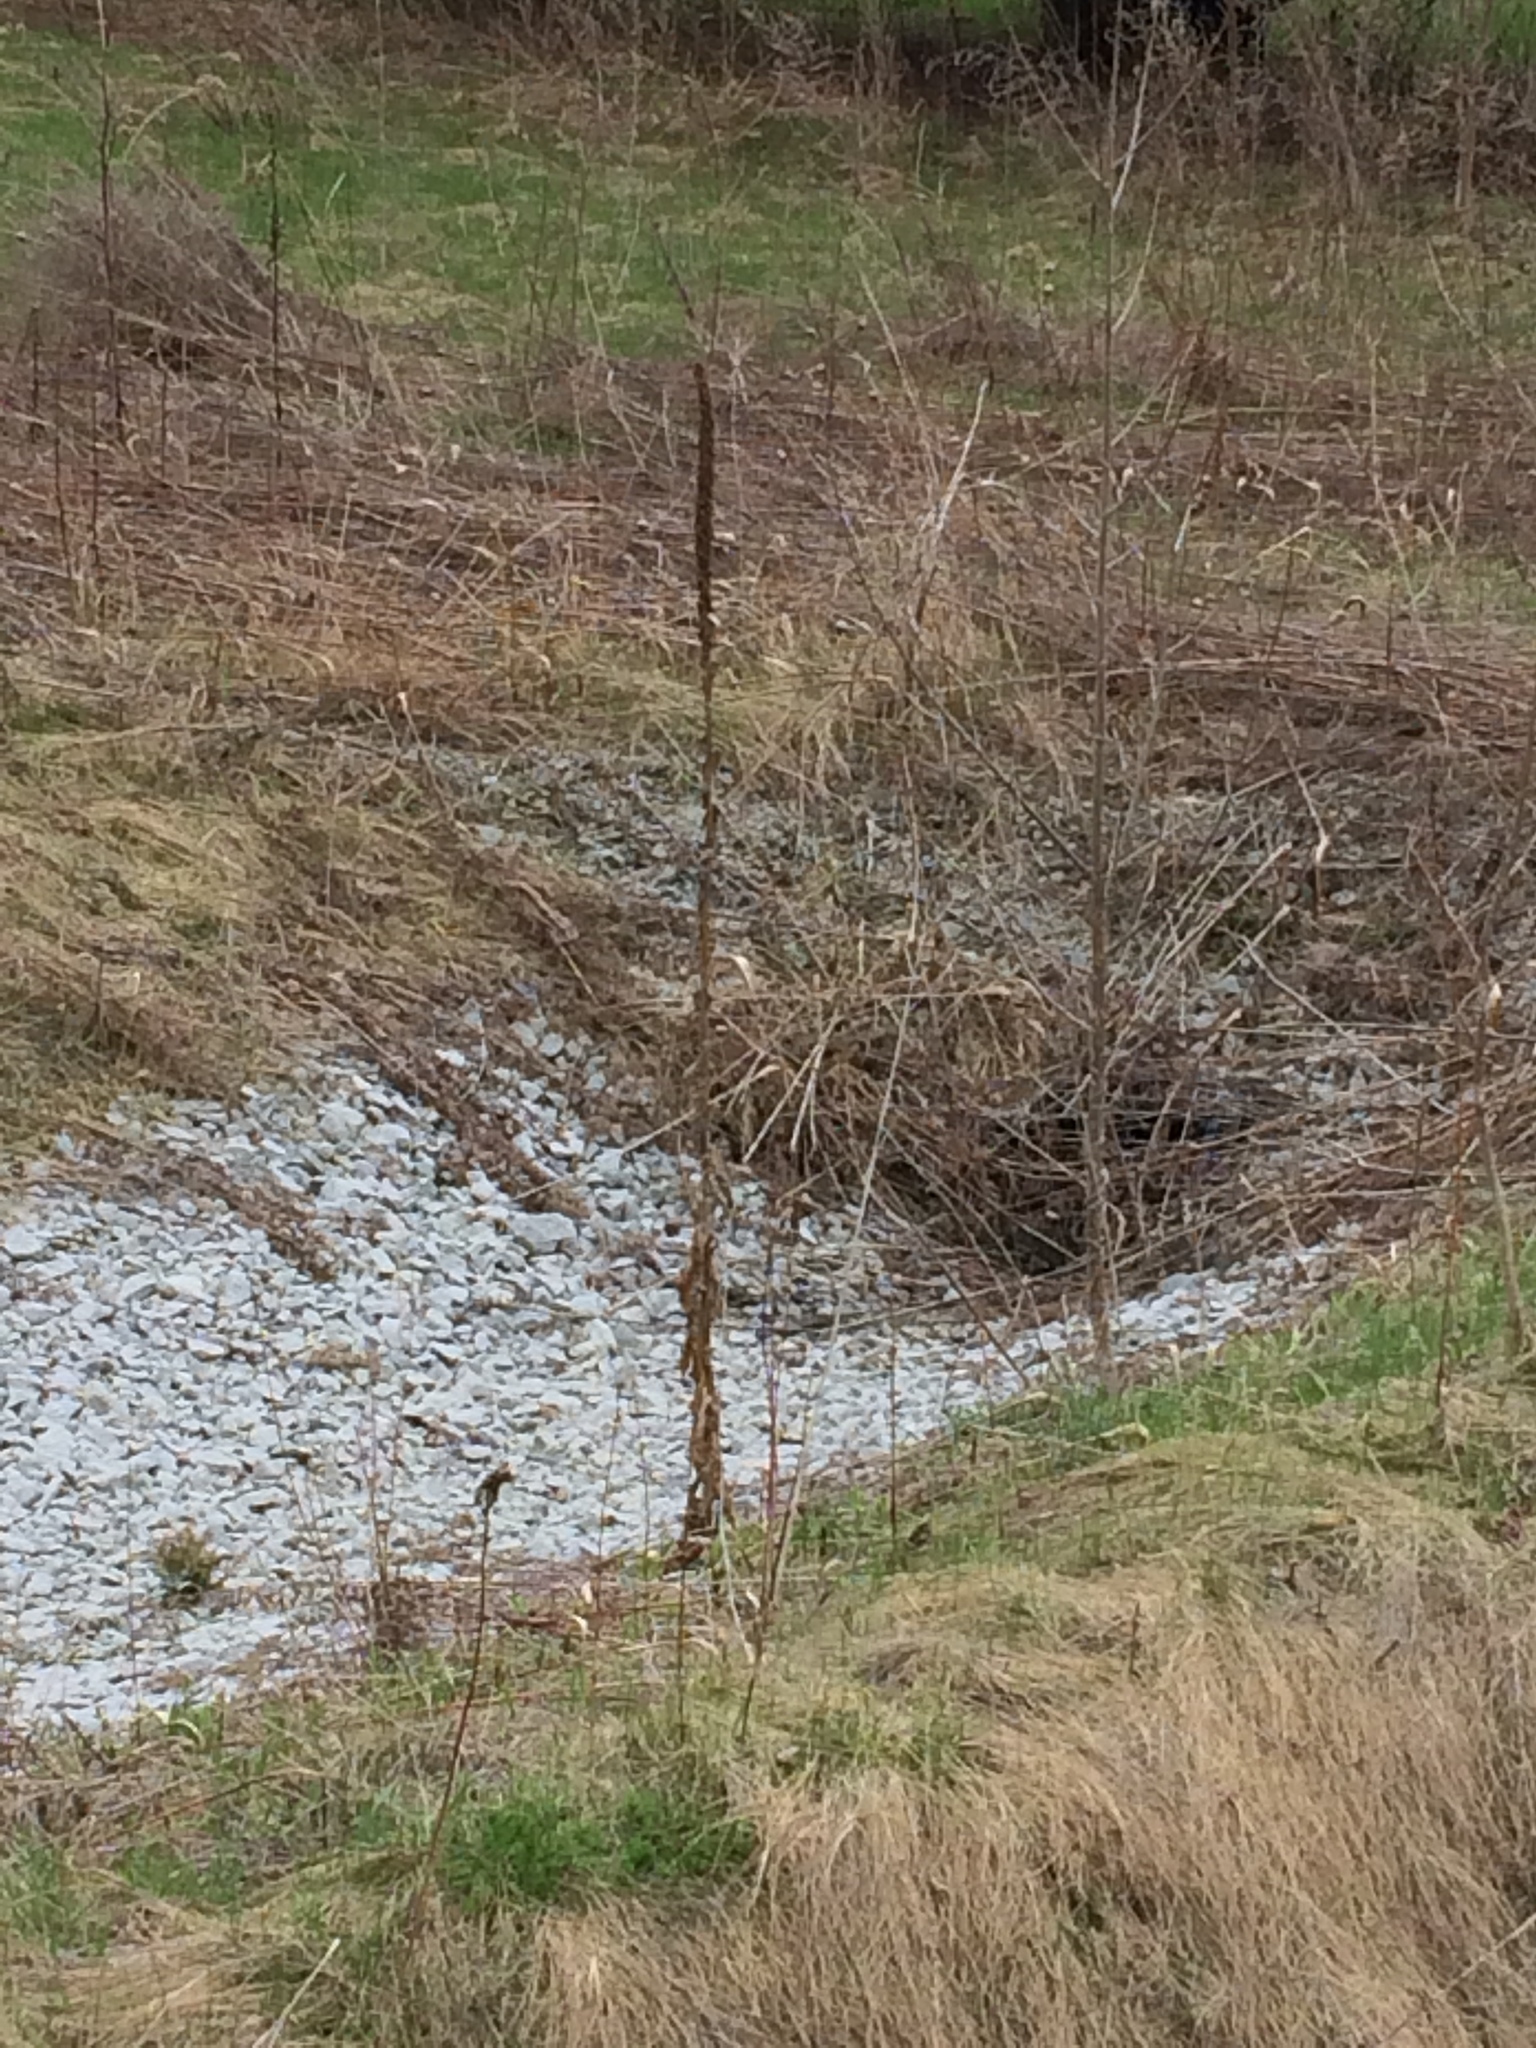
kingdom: Plantae
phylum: Tracheophyta
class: Magnoliopsida
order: Lamiales
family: Scrophulariaceae
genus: Verbascum
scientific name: Verbascum thapsus
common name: Common mullein
